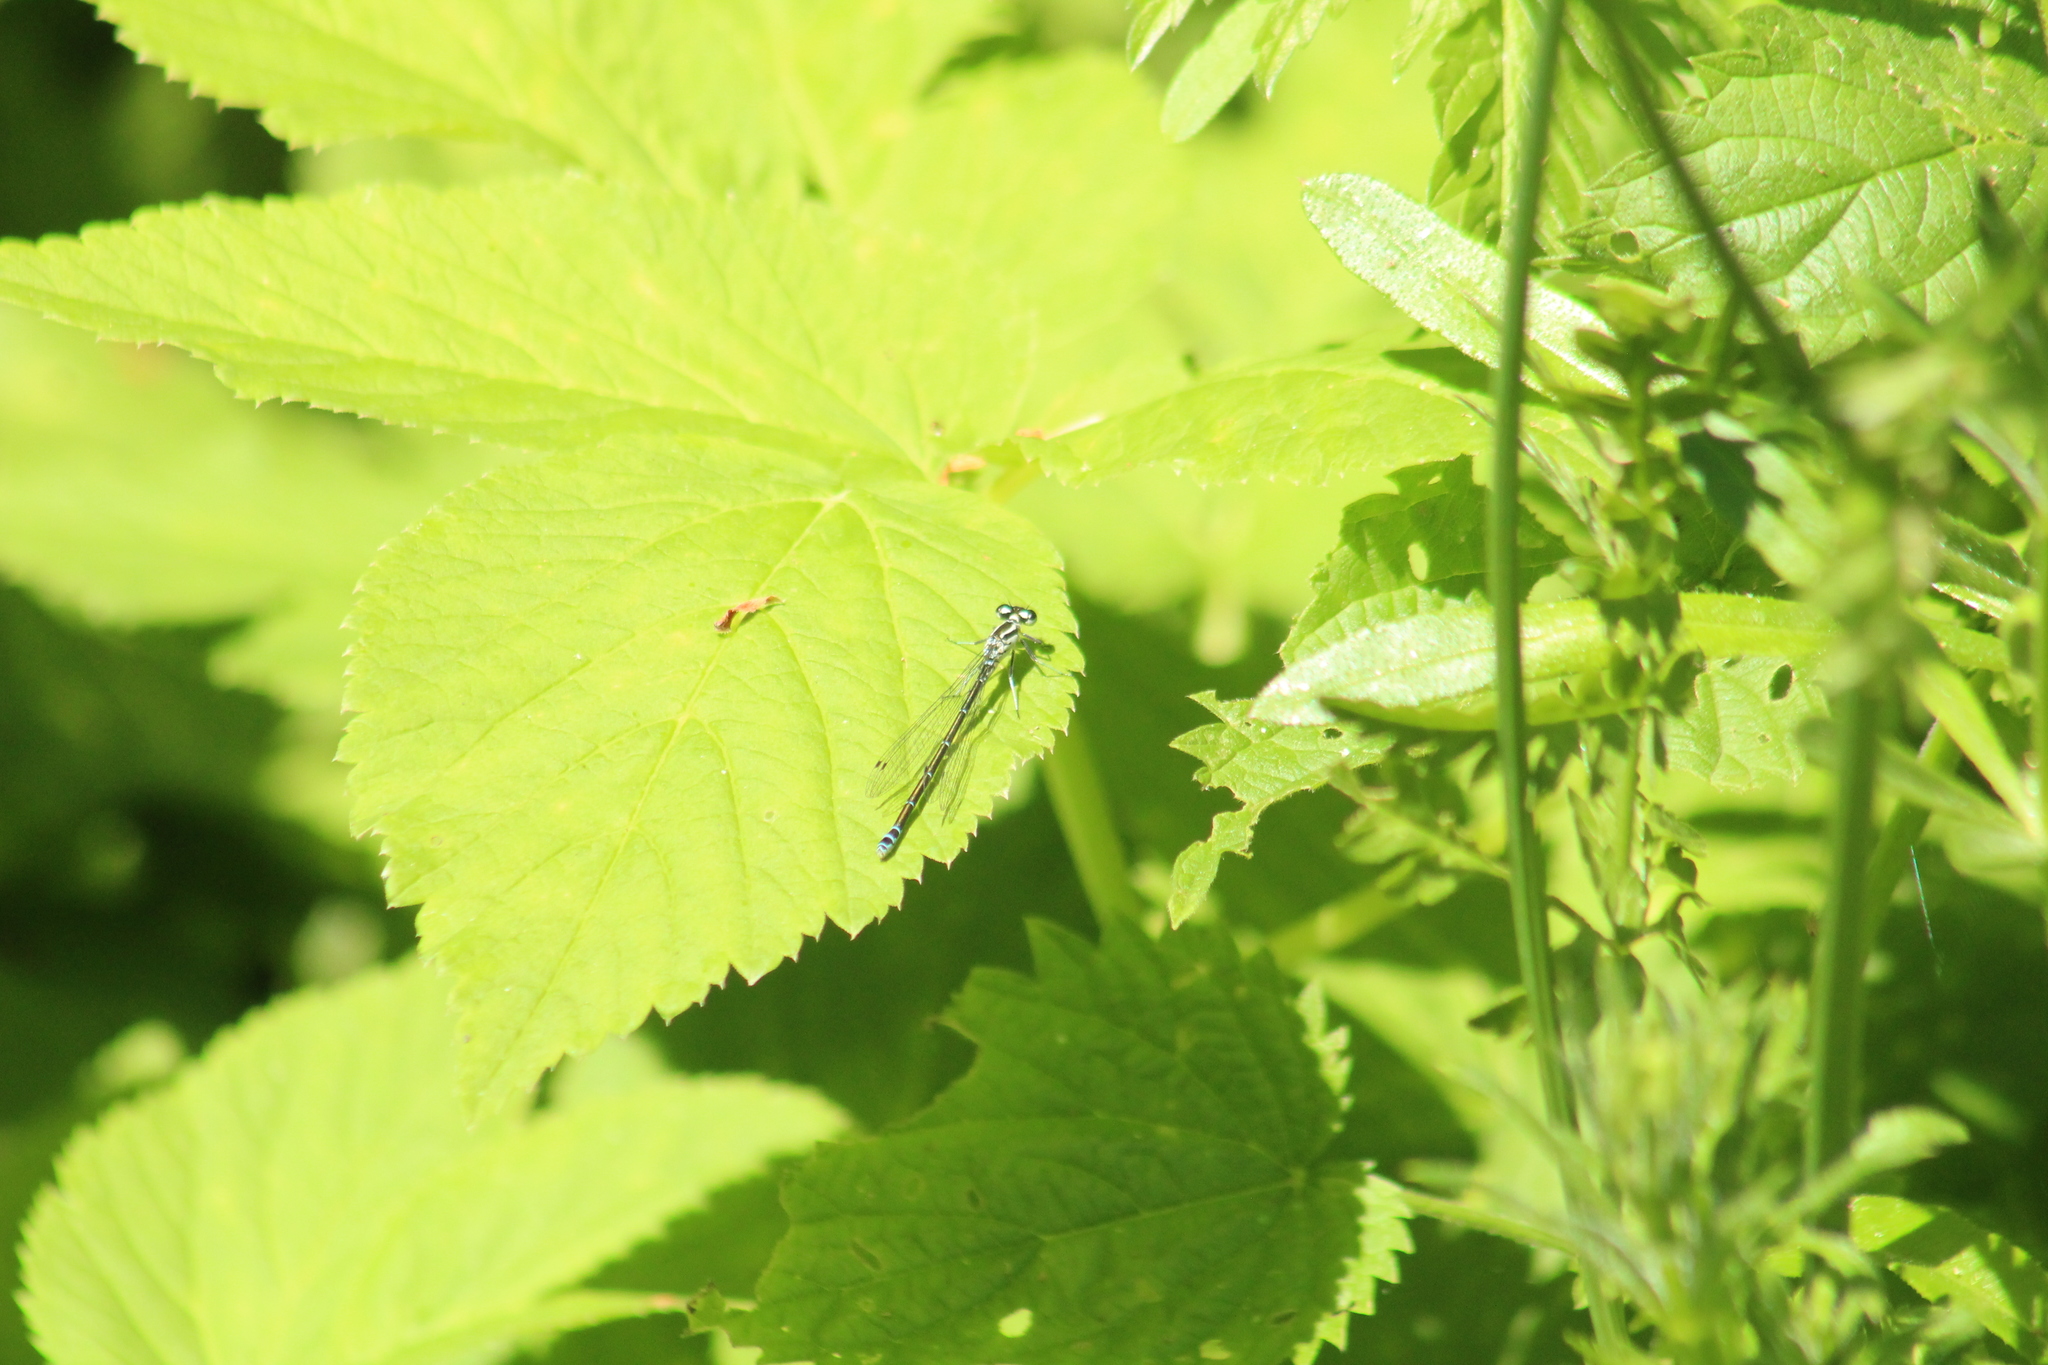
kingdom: Animalia
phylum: Arthropoda
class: Insecta
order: Odonata
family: Coenagrionidae
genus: Coenagrion
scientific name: Coenagrion puella
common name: Azure damselfly
